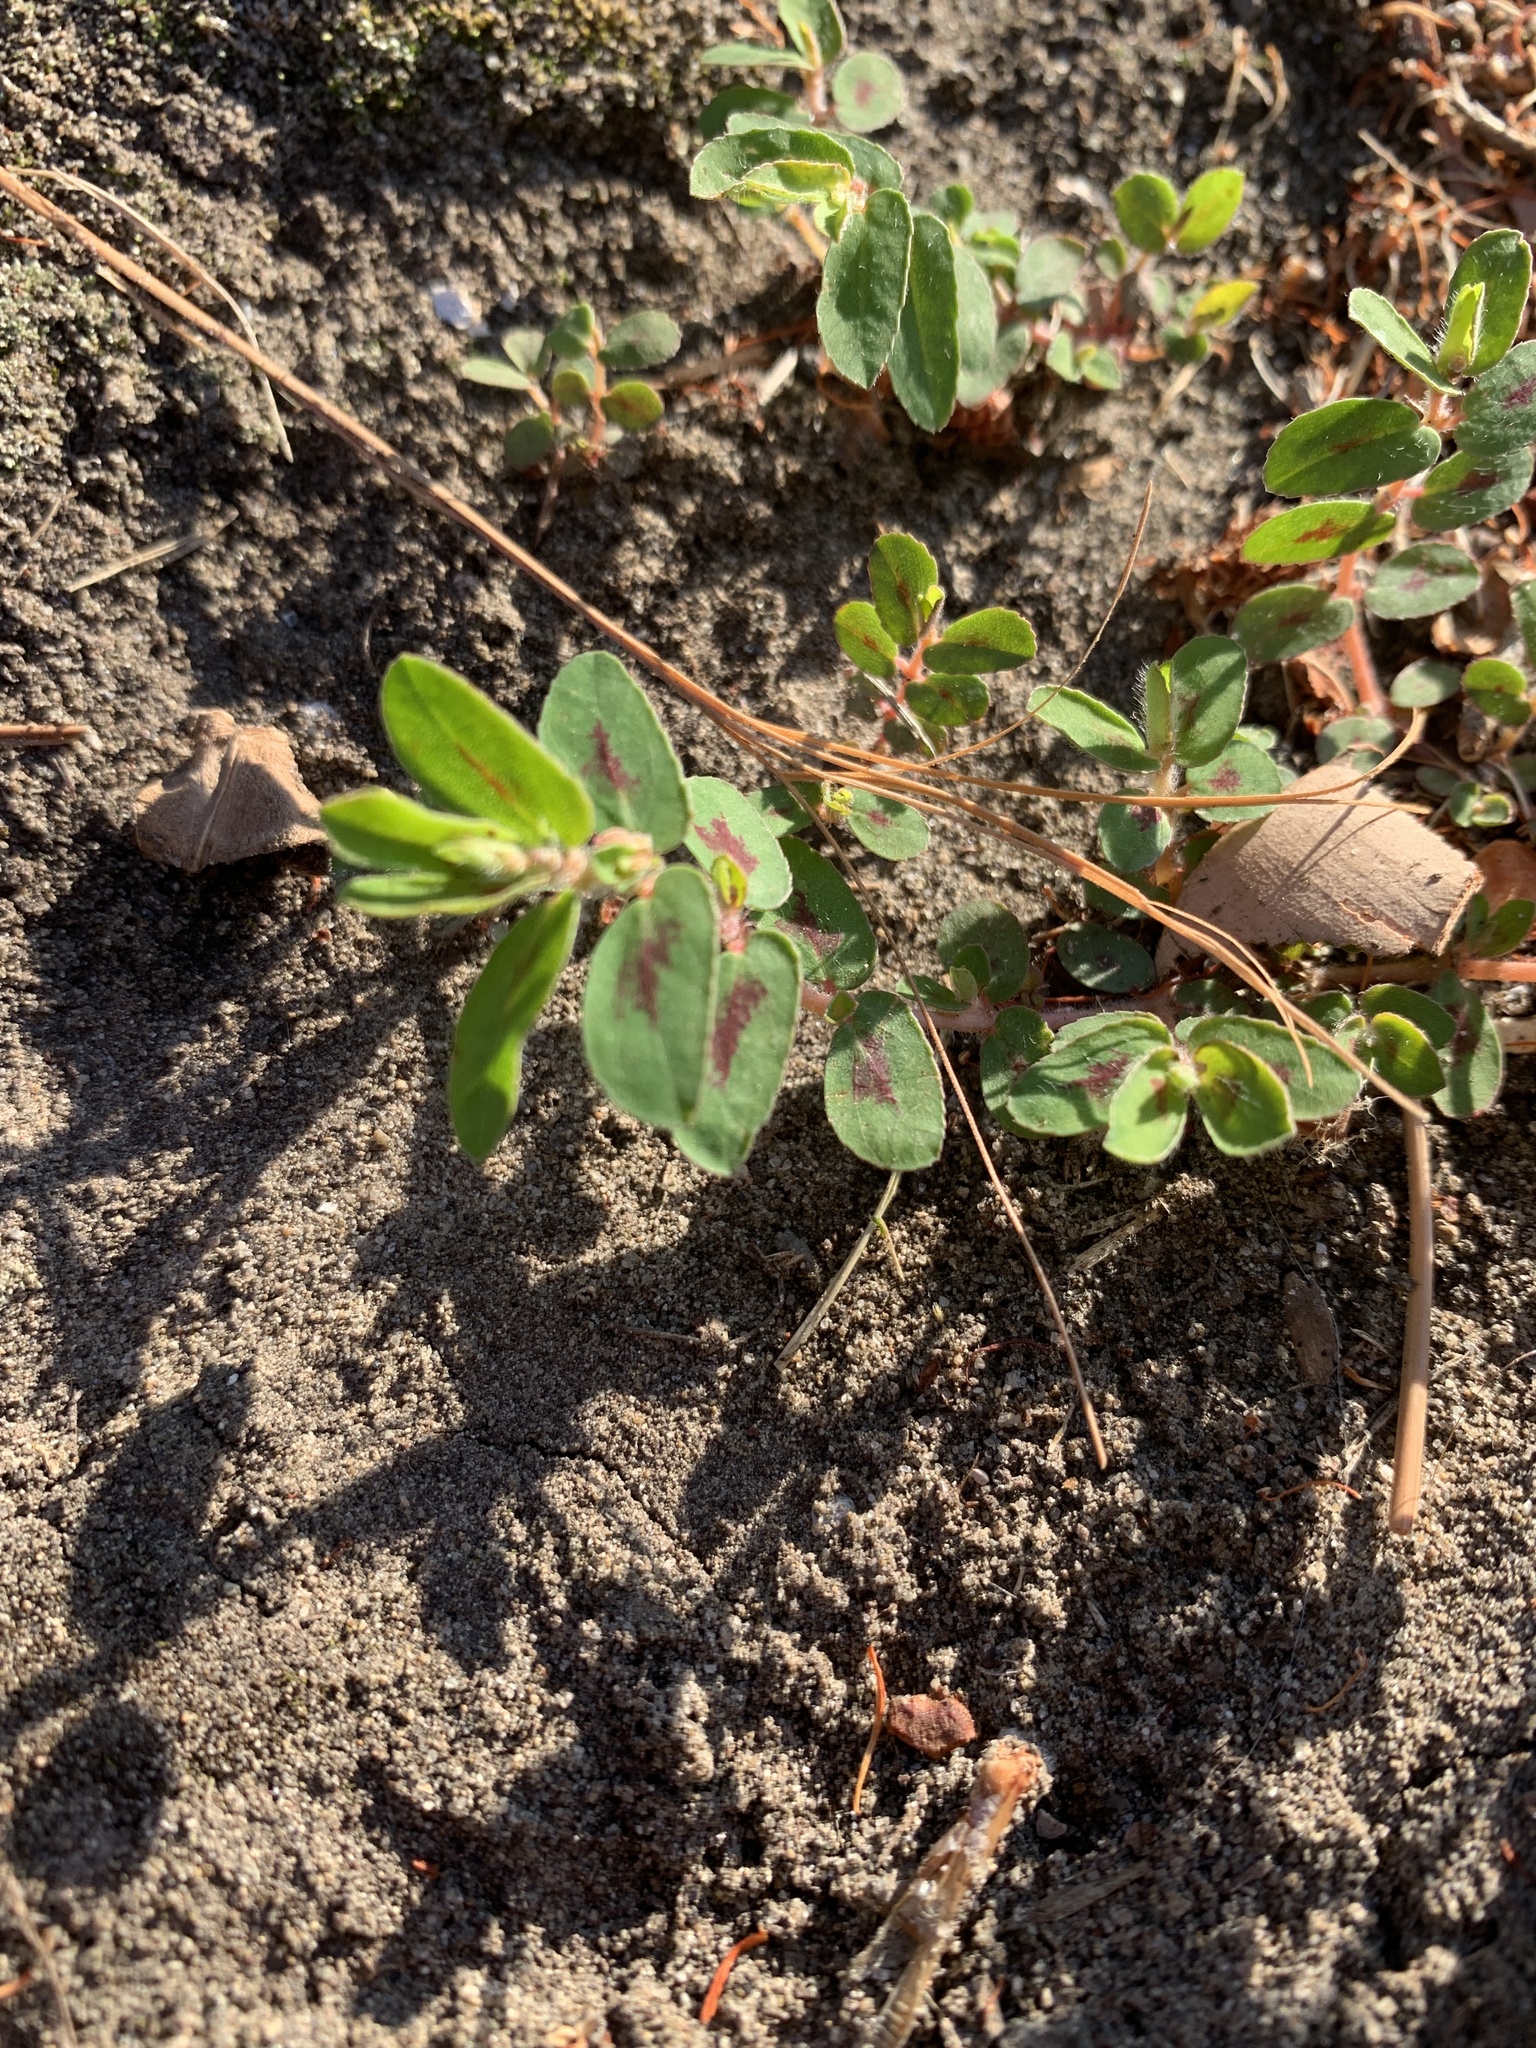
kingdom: Plantae
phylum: Tracheophyta
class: Magnoliopsida
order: Malpighiales
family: Euphorbiaceae
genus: Euphorbia
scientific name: Euphorbia maculata
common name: Spotted spurge
